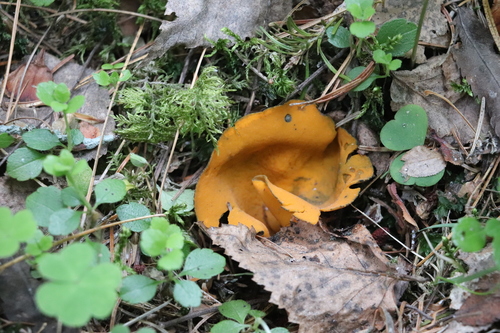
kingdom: Fungi
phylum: Ascomycota
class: Pezizomycetes
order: Pezizales
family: Caloscyphaceae
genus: Caloscypha
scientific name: Caloscypha fulgens
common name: Golden cup
